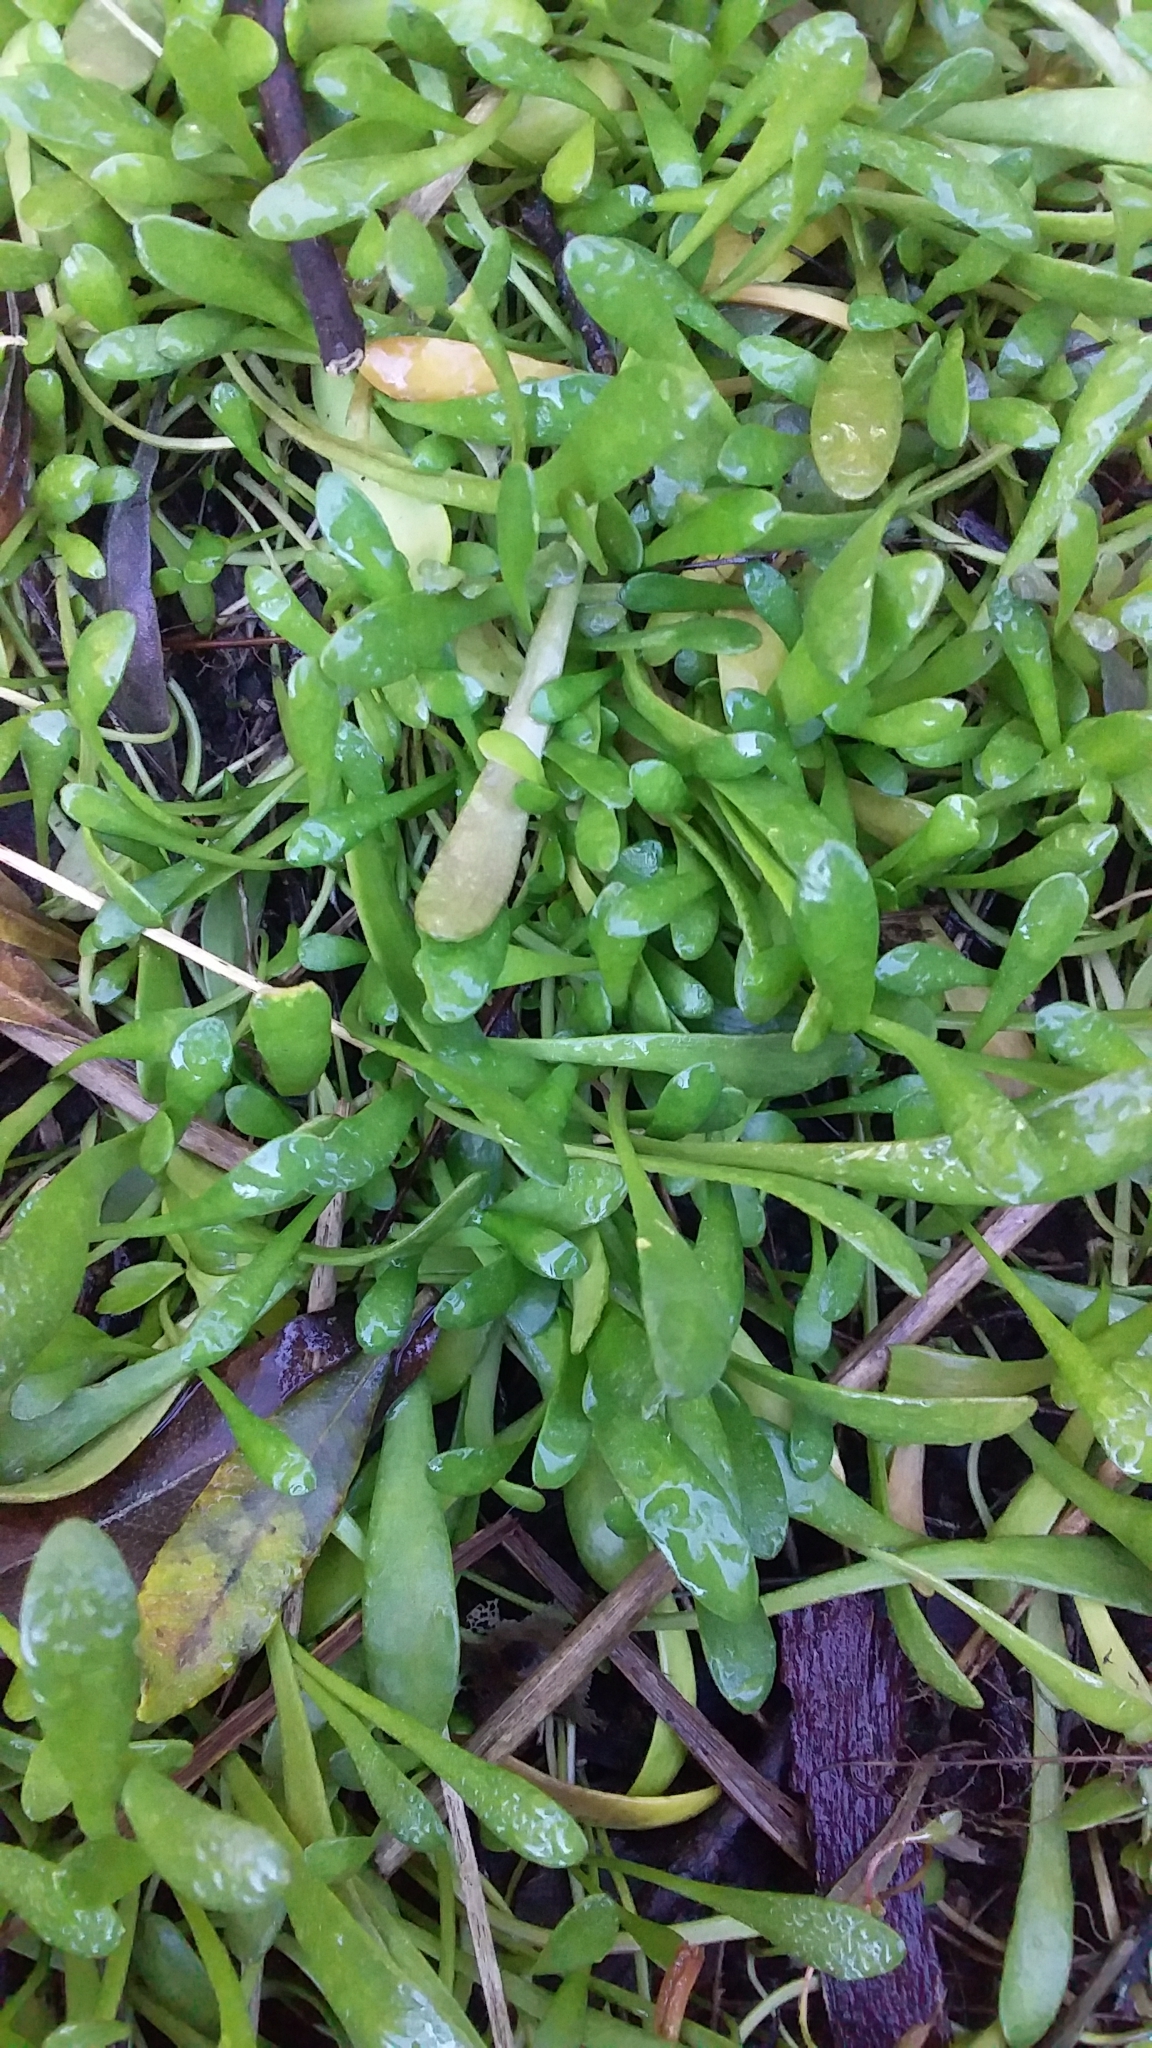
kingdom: Plantae
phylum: Tracheophyta
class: Magnoliopsida
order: Asterales
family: Goodeniaceae
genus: Goodenia
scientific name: Goodenia radicans
